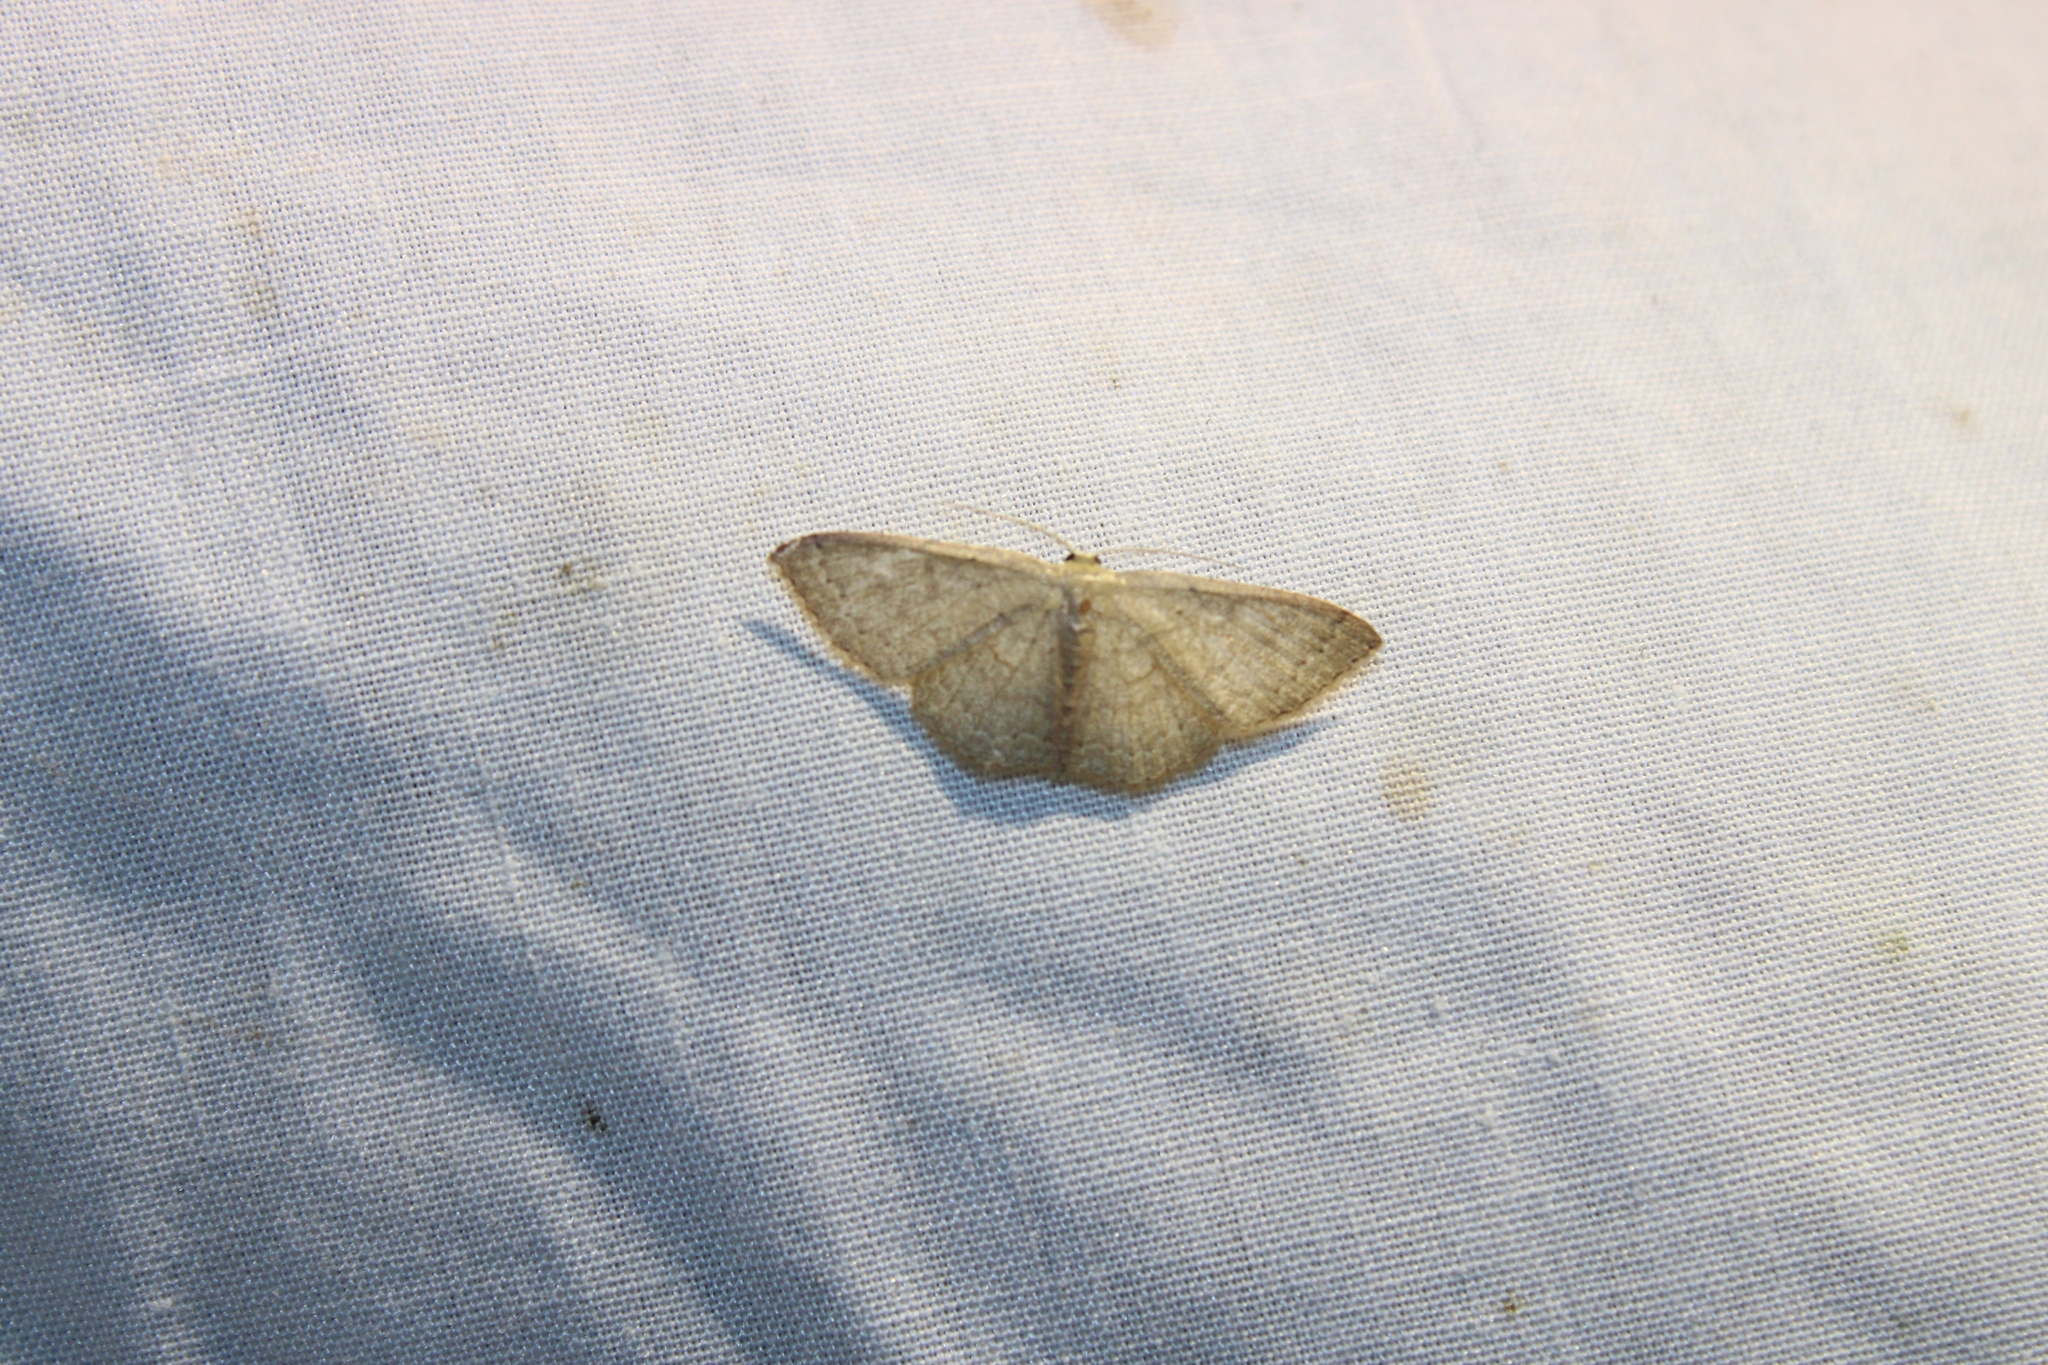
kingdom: Animalia
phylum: Arthropoda
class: Insecta
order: Lepidoptera
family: Geometridae
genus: Pleuroprucha
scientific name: Pleuroprucha insulsaria
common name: Common tan wave
